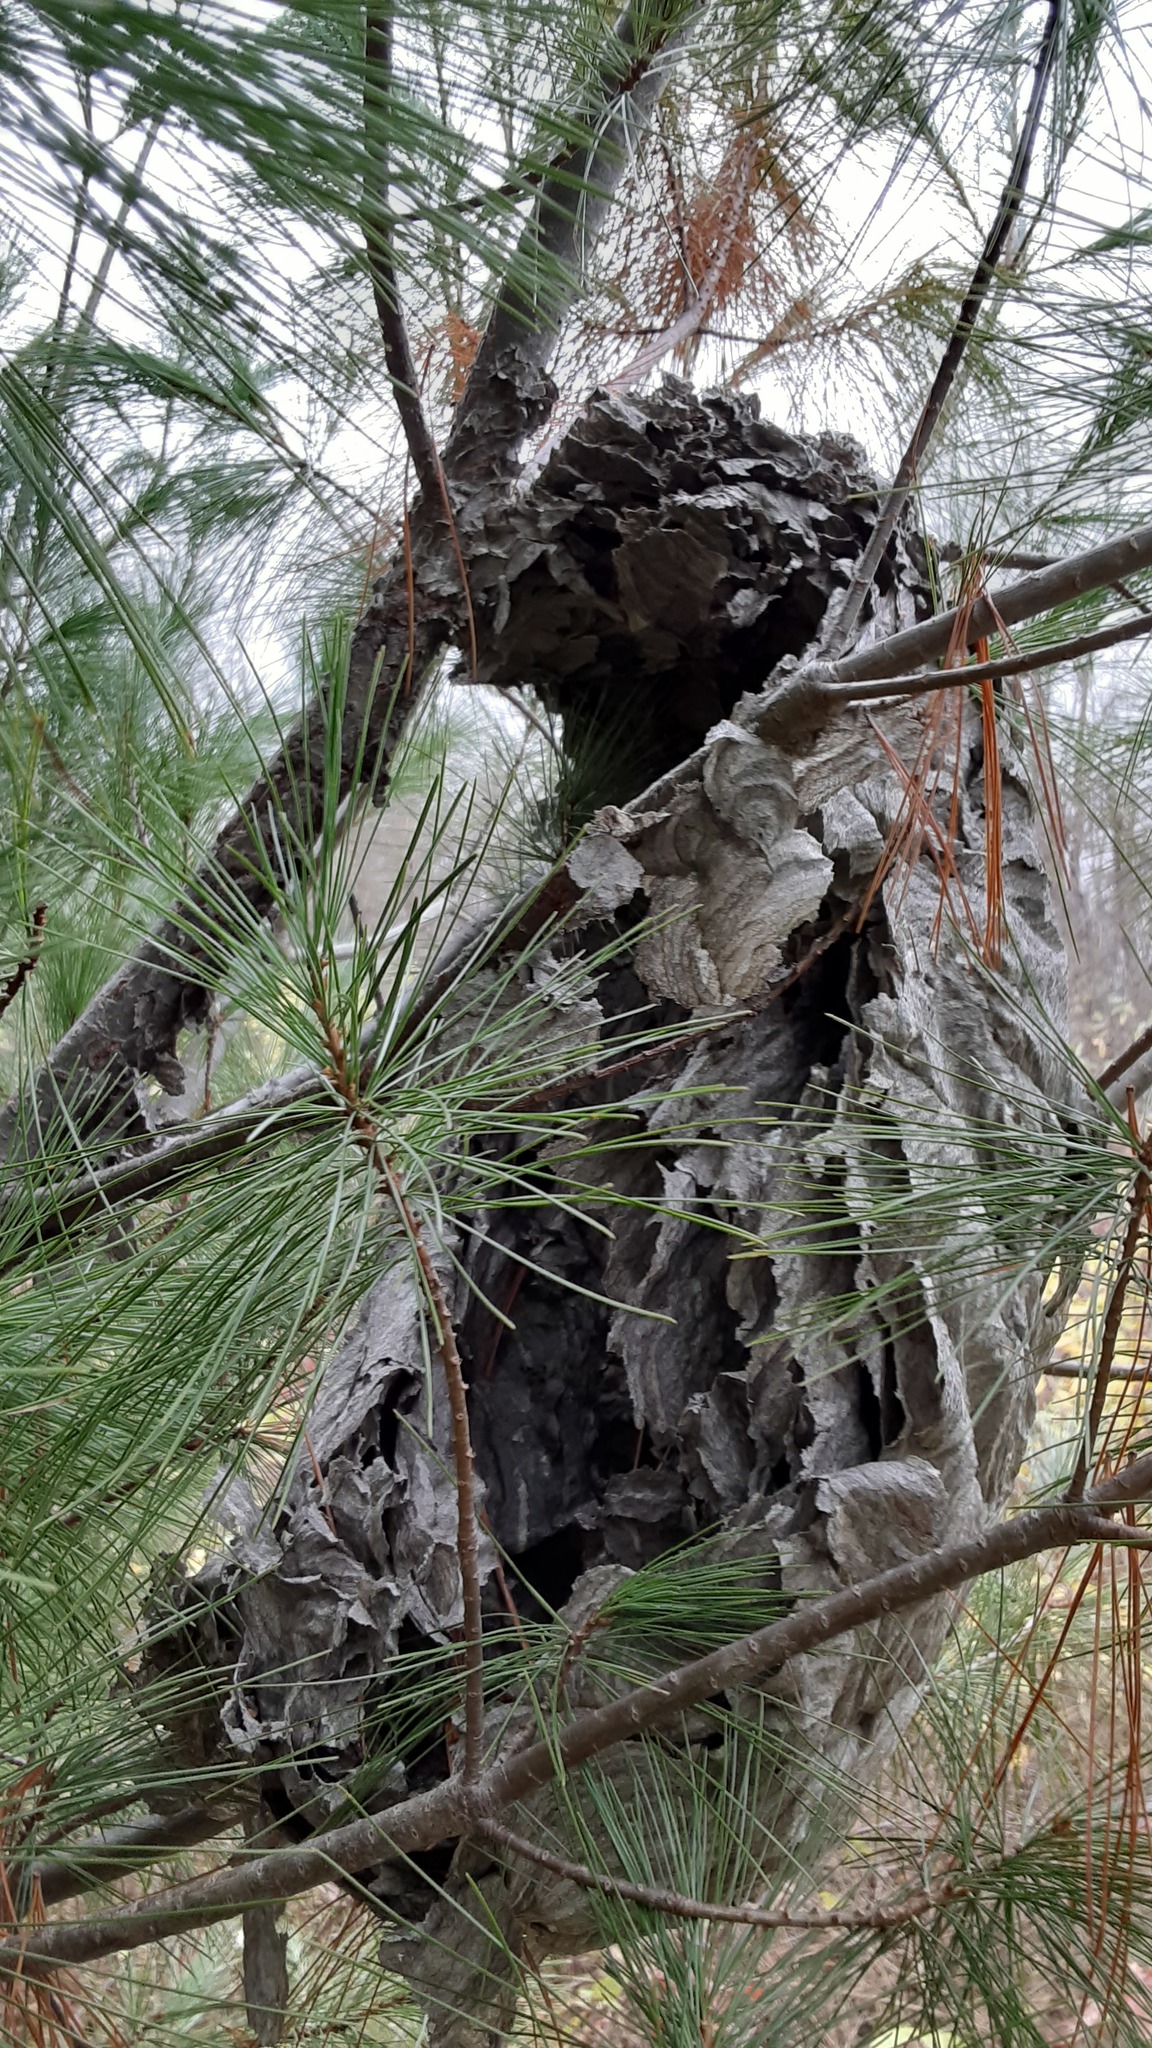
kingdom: Animalia
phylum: Arthropoda
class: Insecta
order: Hymenoptera
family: Vespidae
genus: Dolichovespula
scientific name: Dolichovespula maculata
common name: Bald-faced hornet
